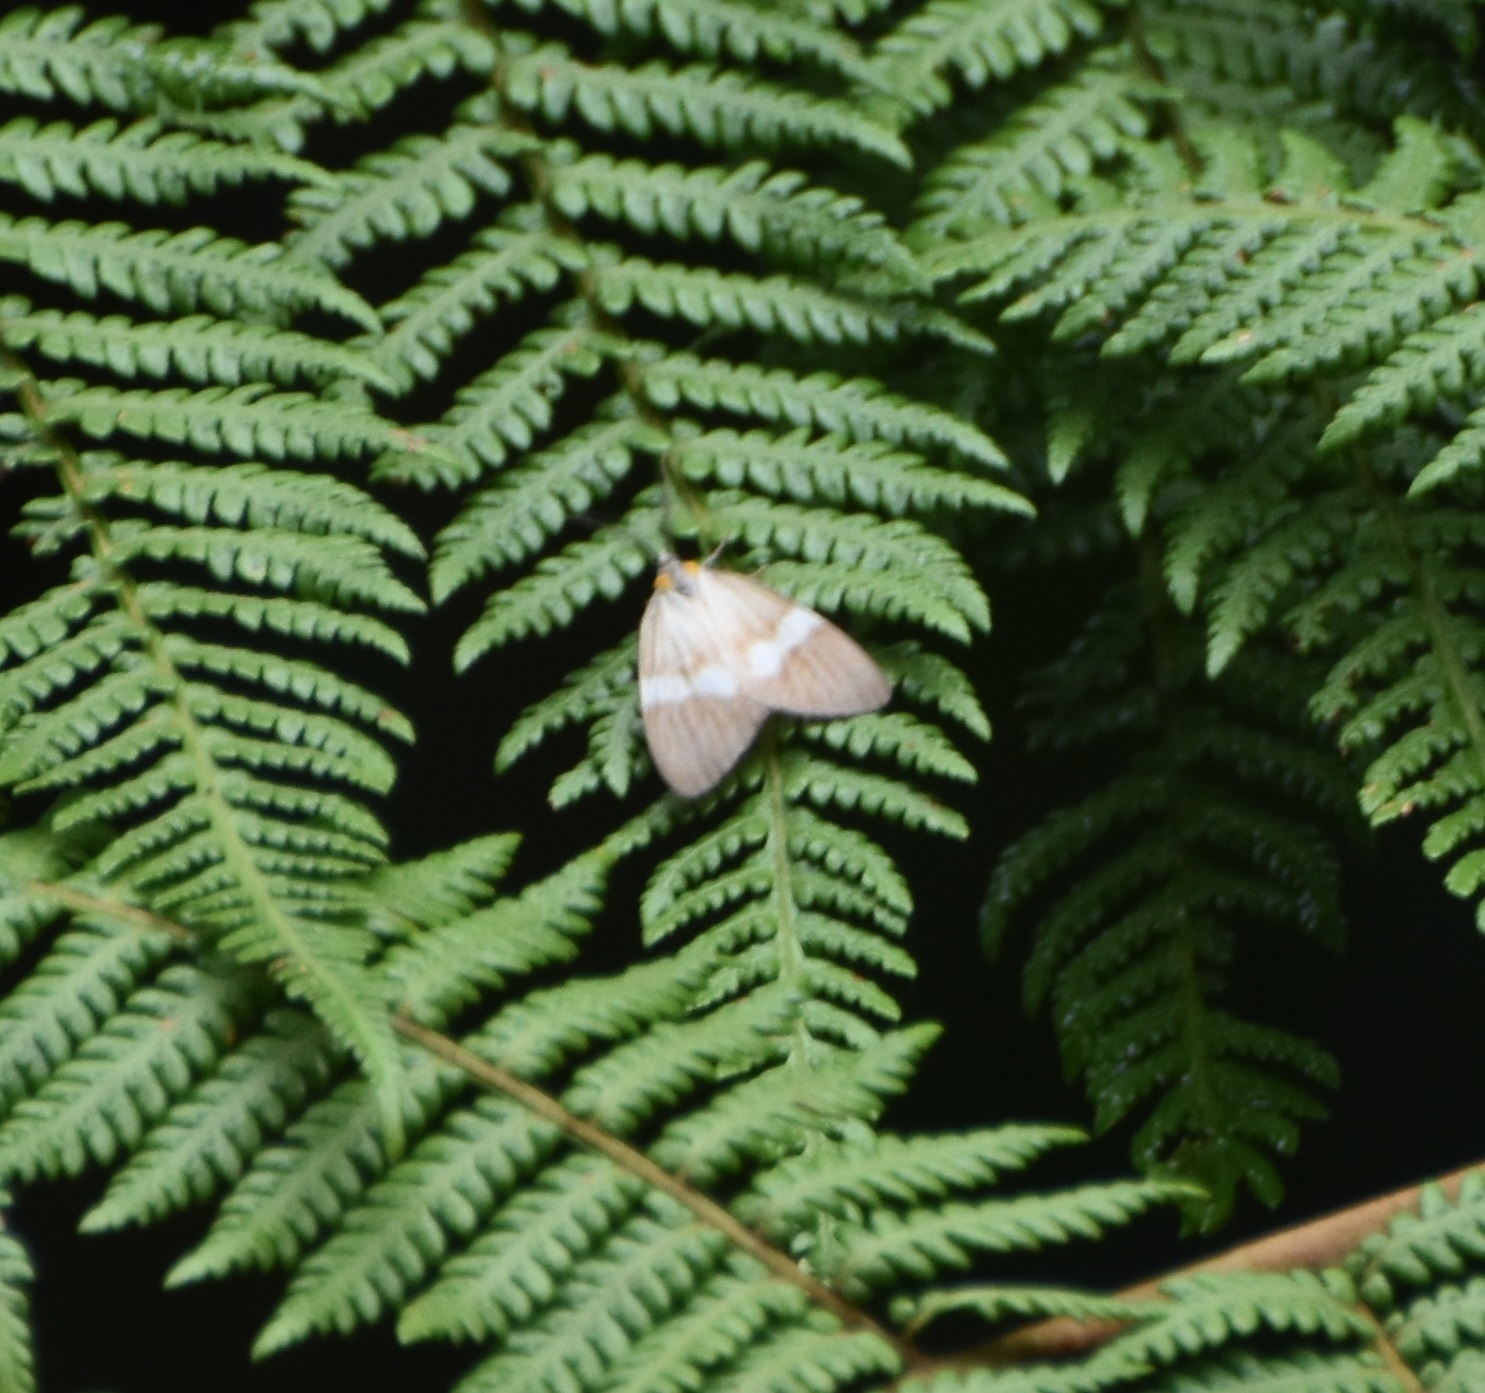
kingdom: Animalia
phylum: Arthropoda
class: Insecta
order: Lepidoptera
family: Notodontidae
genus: Nebulosa
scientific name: Nebulosa creon
